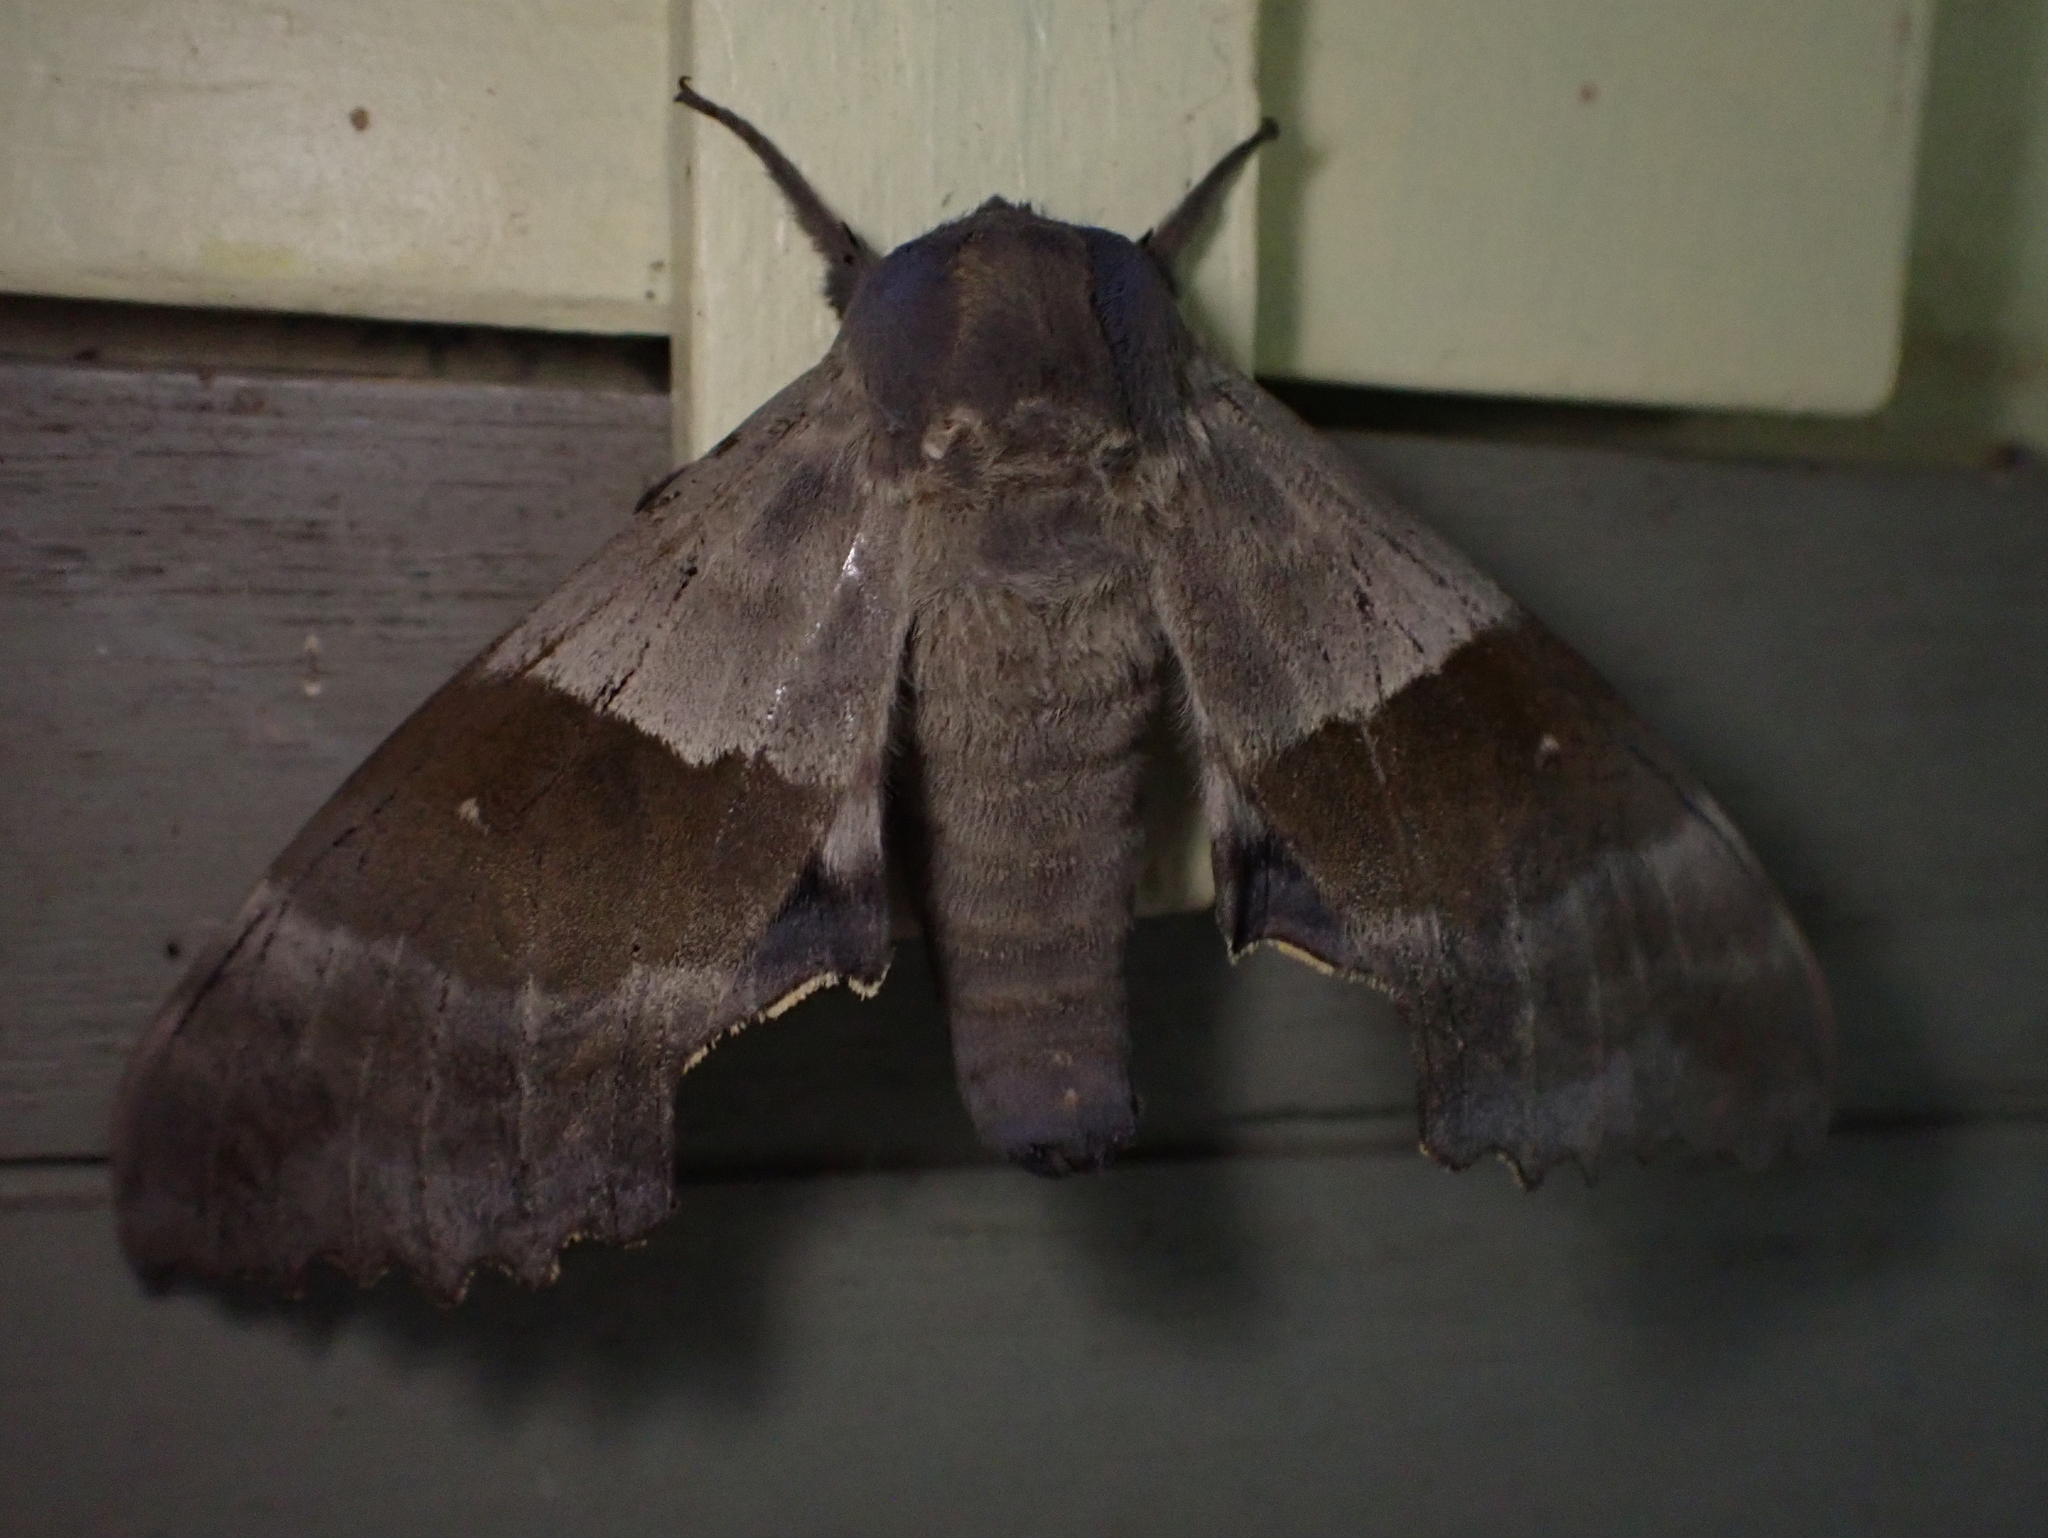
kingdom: Animalia
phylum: Arthropoda
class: Insecta
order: Lepidoptera
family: Sphingidae
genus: Pachysphinx
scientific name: Pachysphinx modesta
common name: Big poplar sphinx
